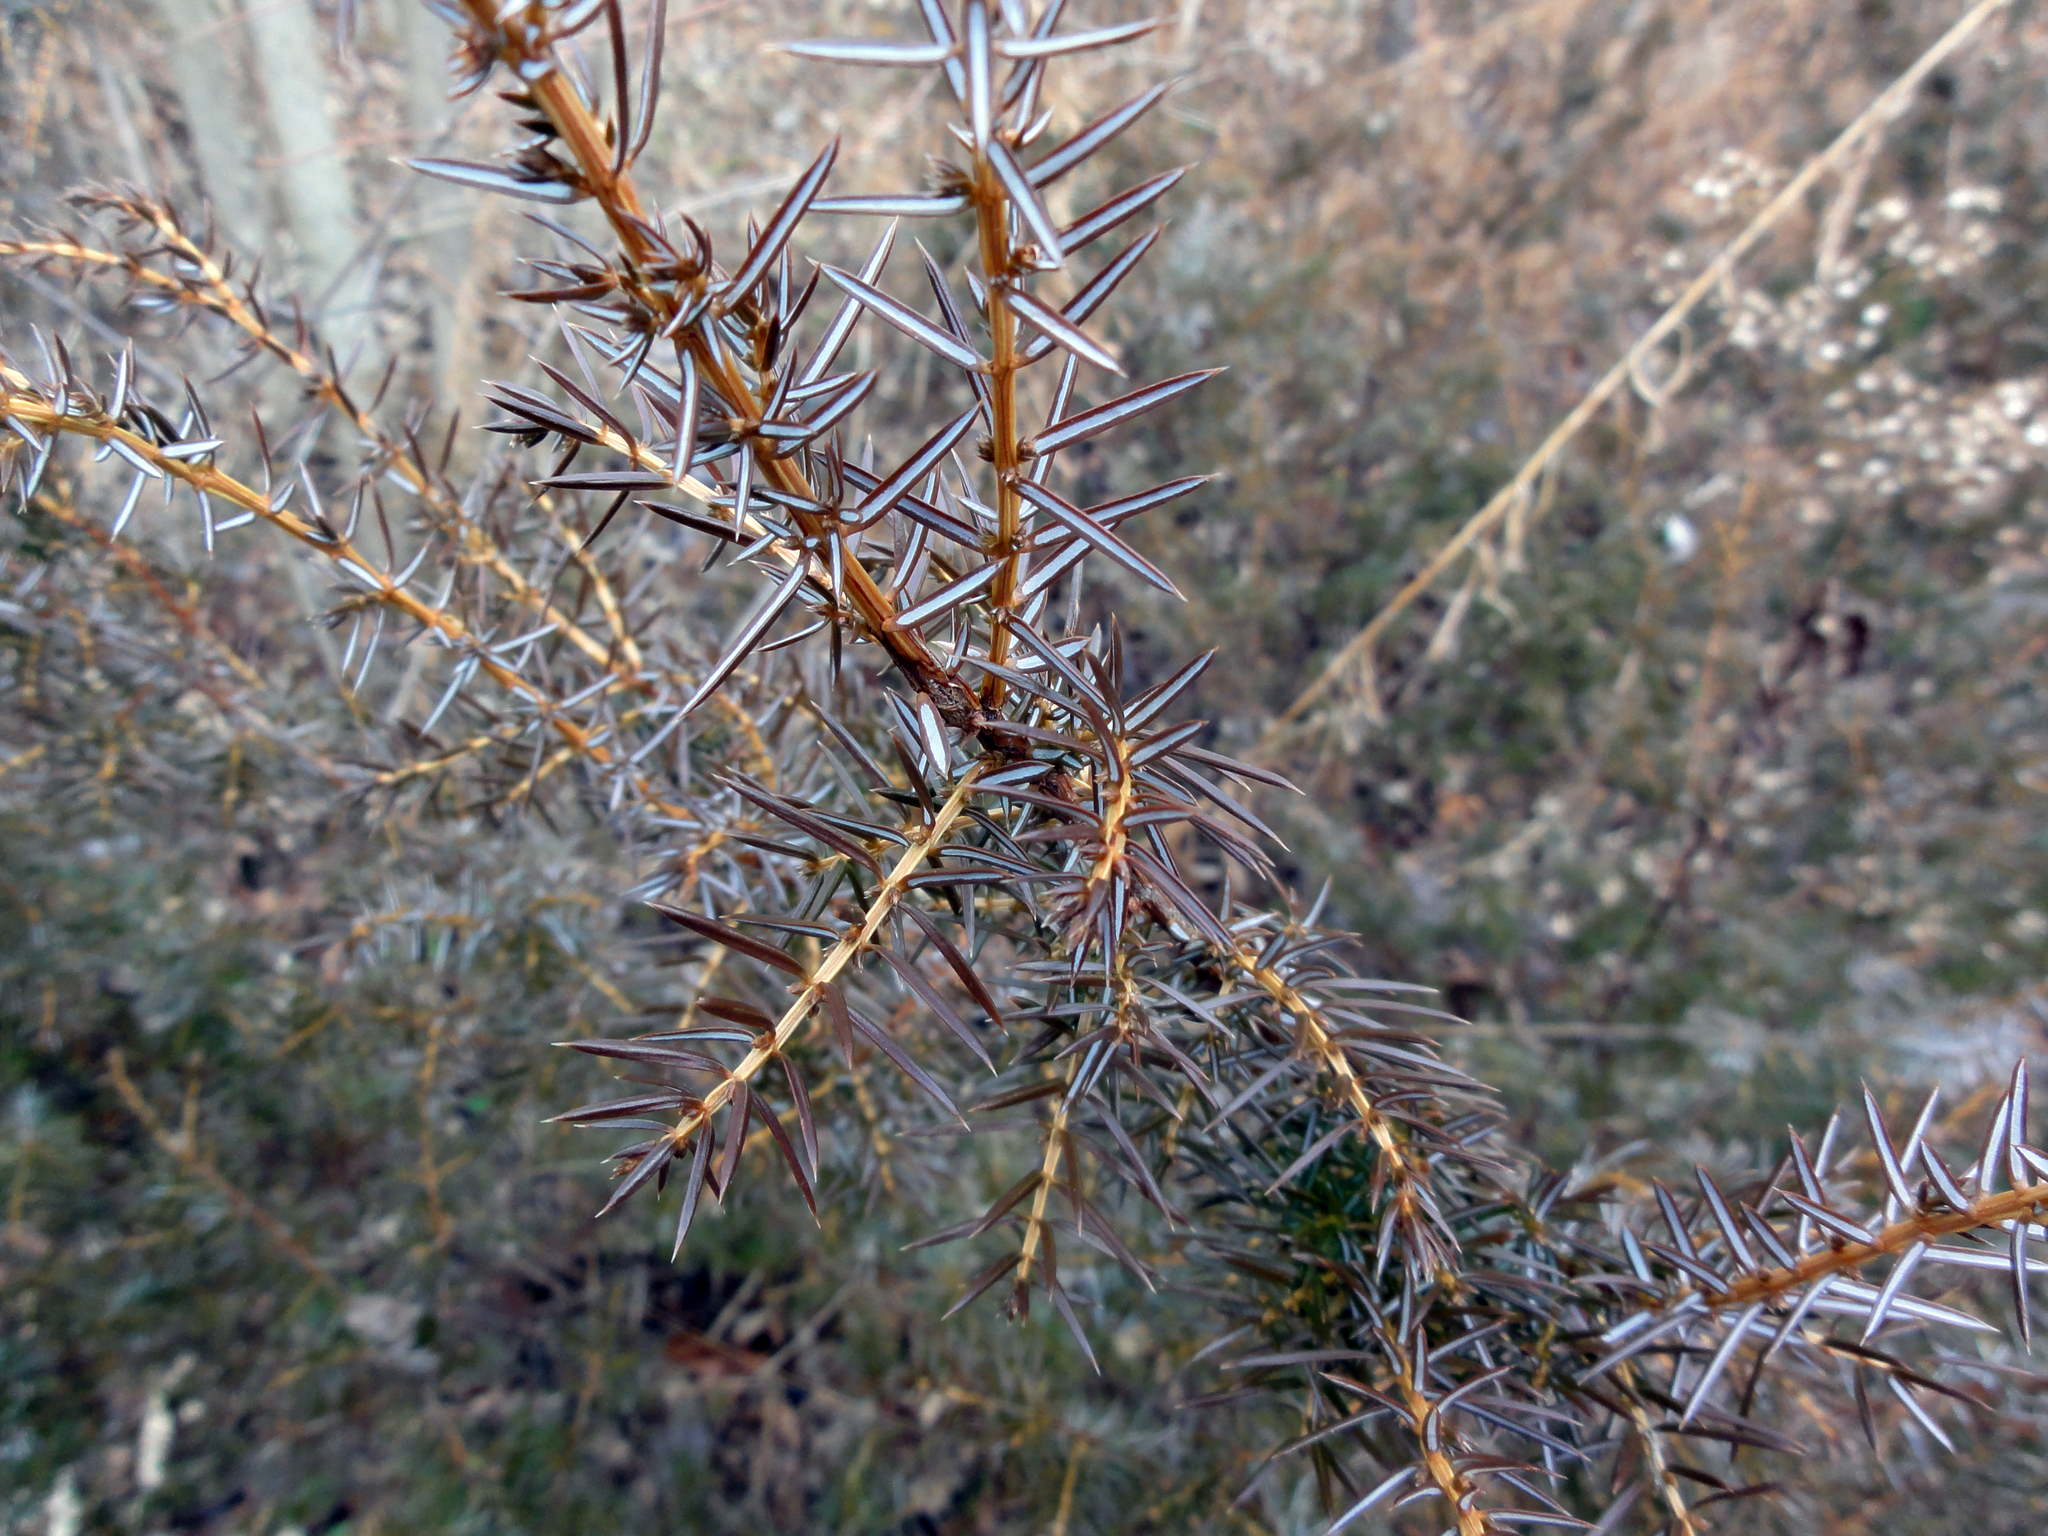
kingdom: Plantae
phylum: Tracheophyta
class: Pinopsida
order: Pinales
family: Cupressaceae
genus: Juniperus
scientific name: Juniperus communis
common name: Common juniper
